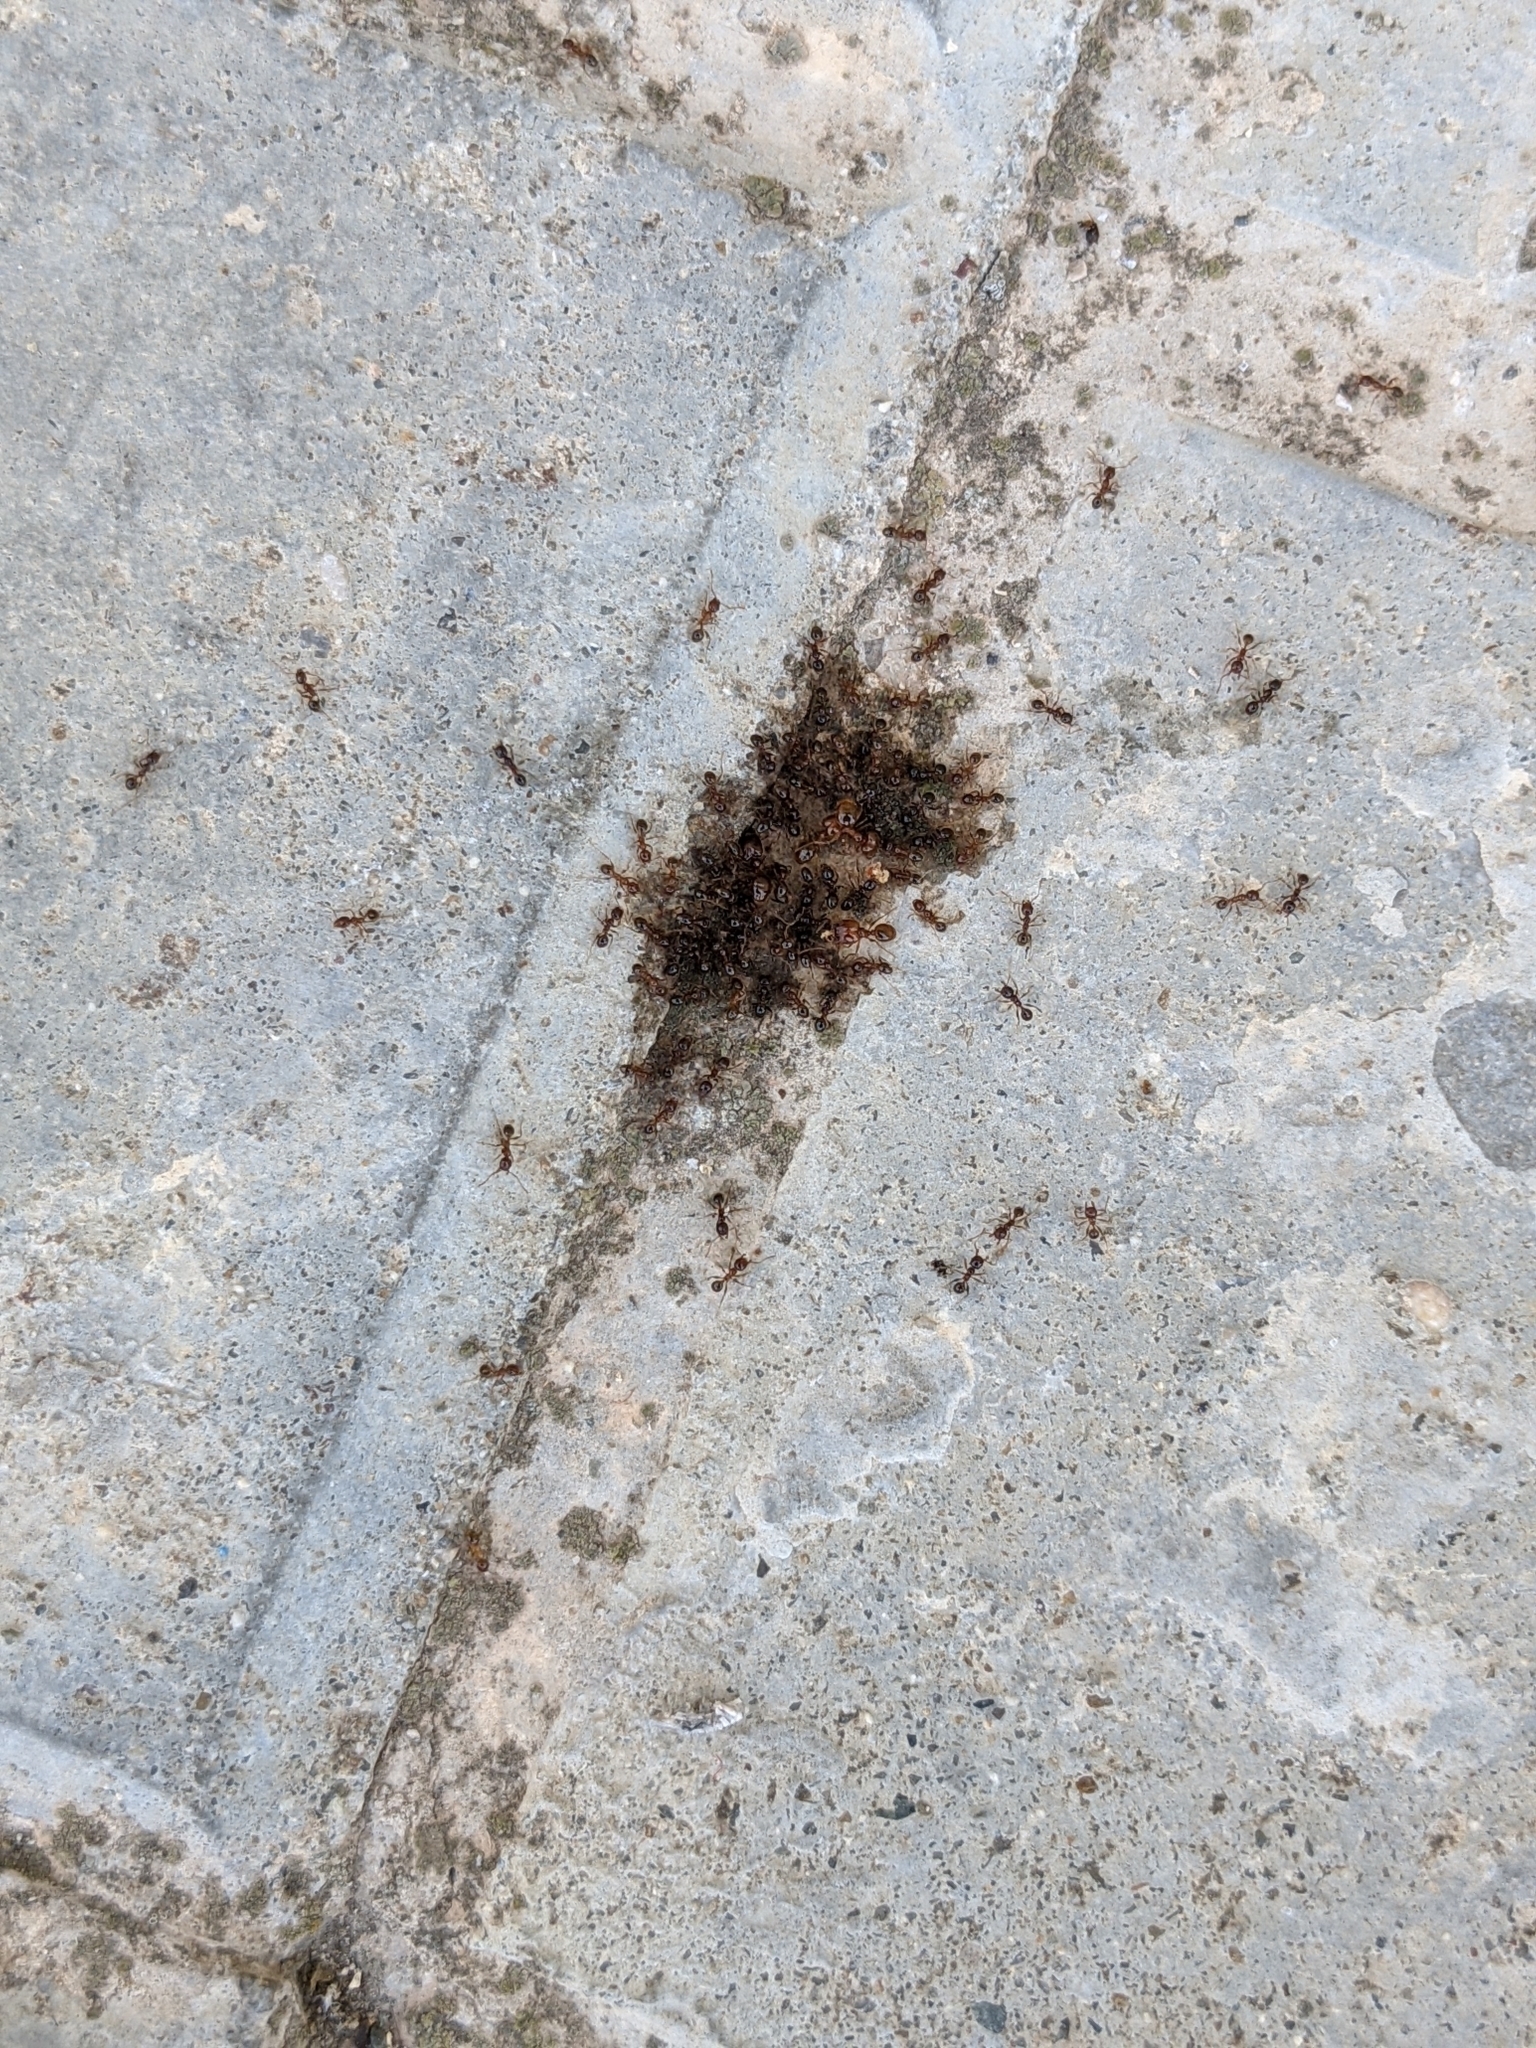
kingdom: Animalia
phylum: Arthropoda
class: Insecta
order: Hymenoptera
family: Formicidae
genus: Pheidole
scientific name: Pheidole pallidula
